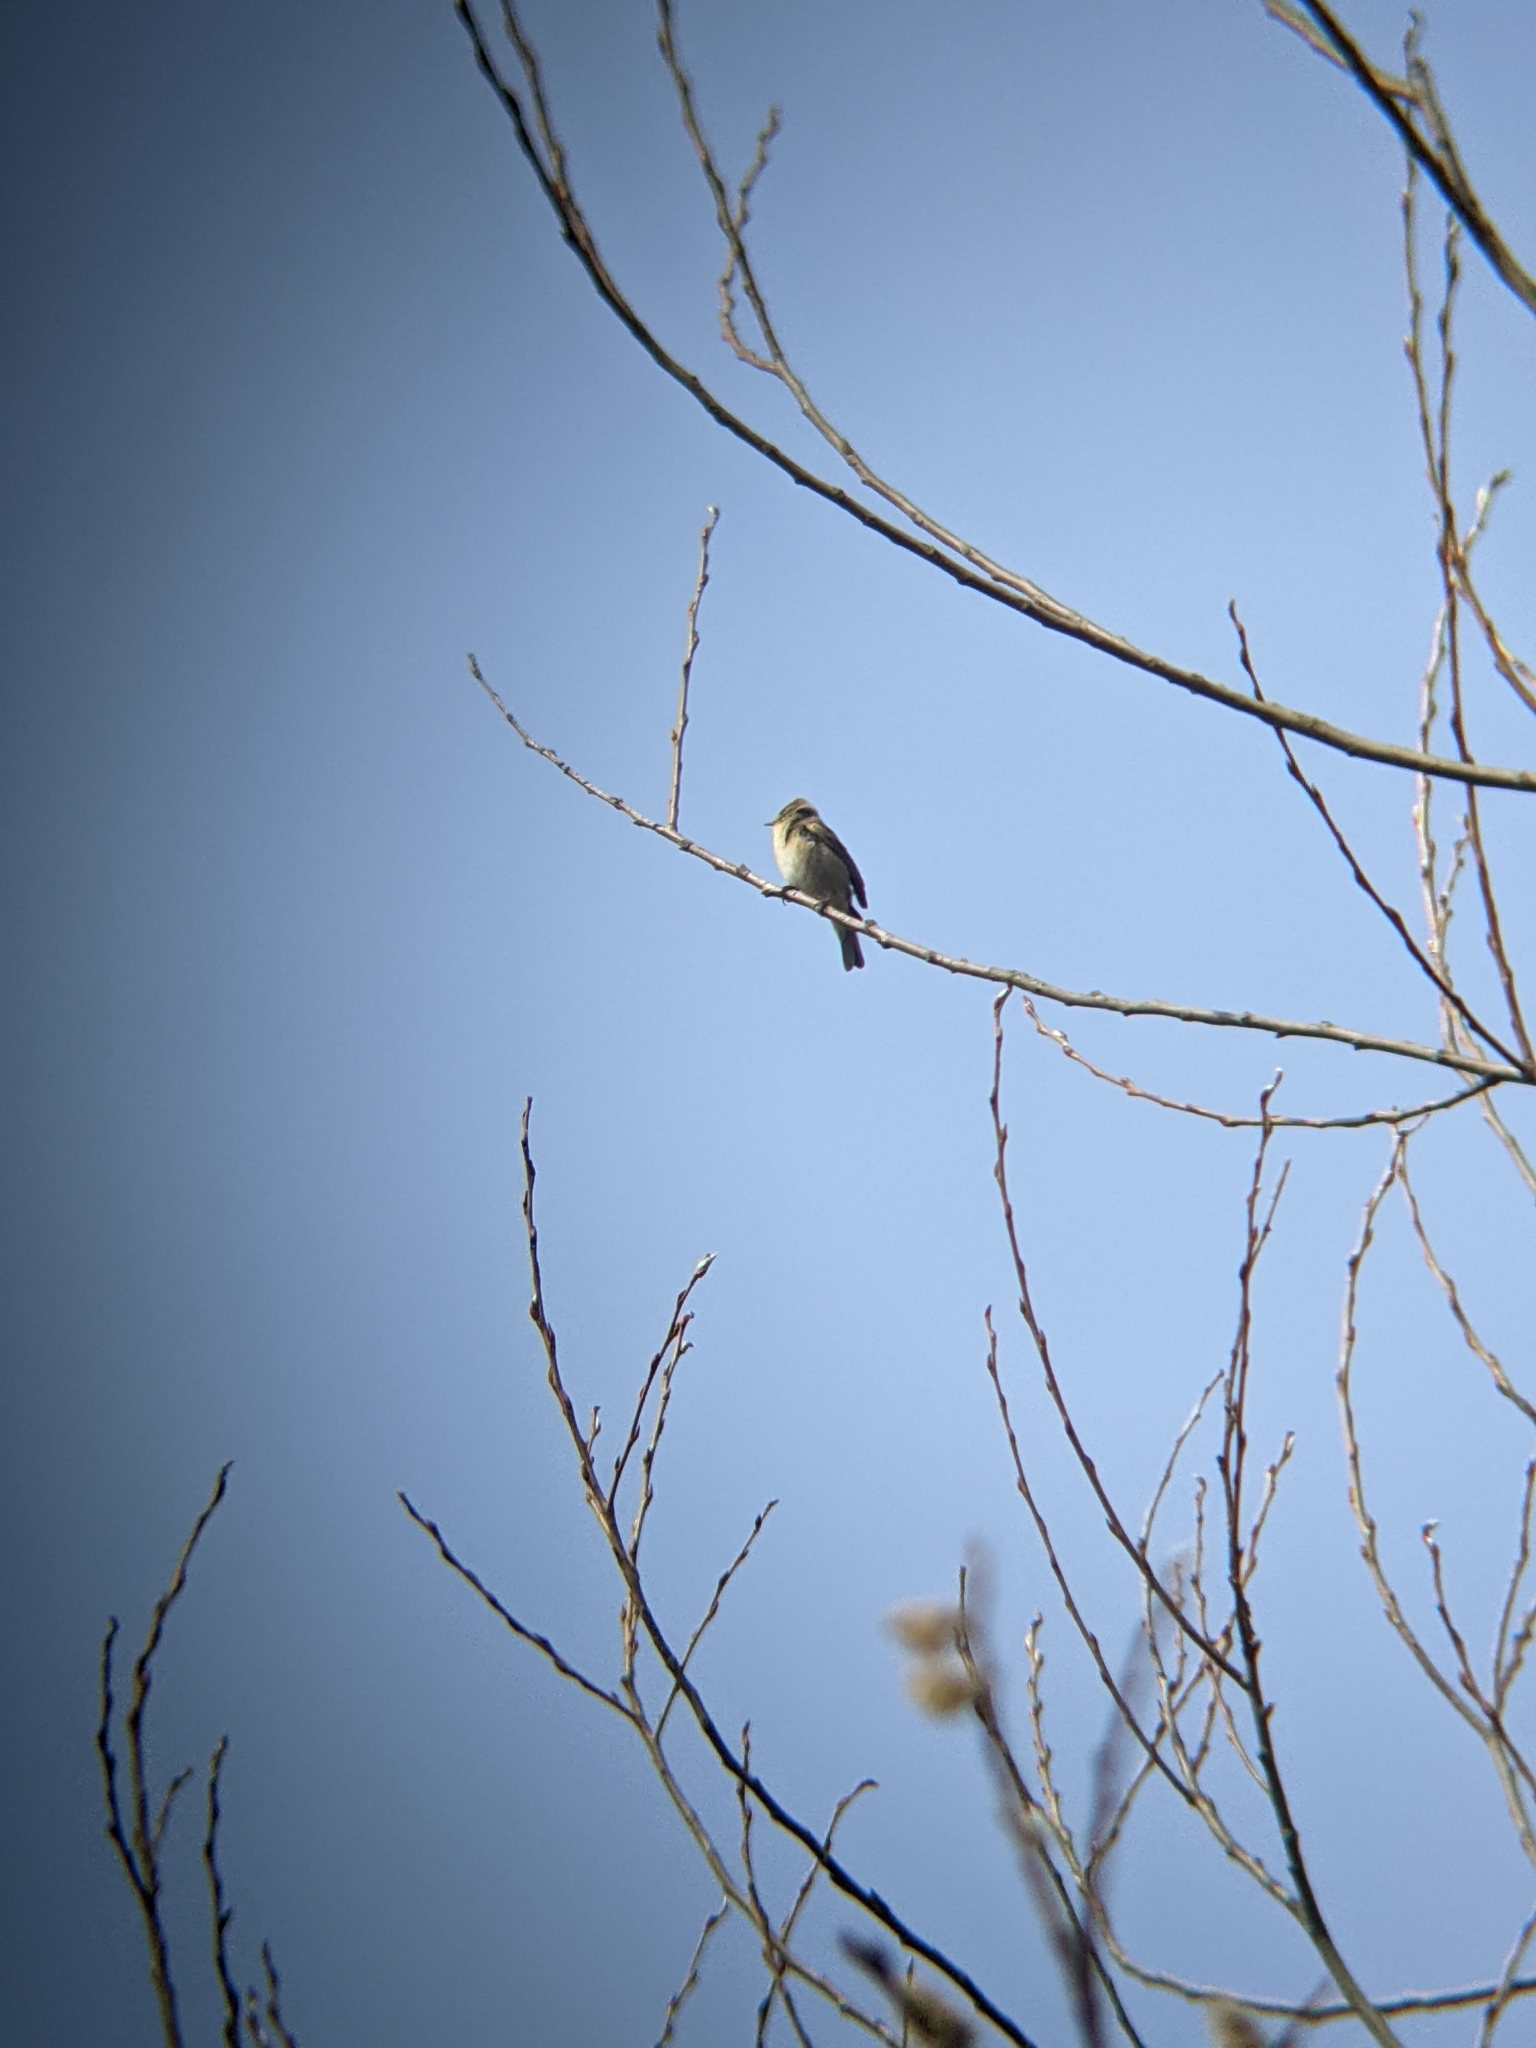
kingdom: Animalia
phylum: Chordata
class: Aves
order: Passeriformes
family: Phylloscopidae
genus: Phylloscopus
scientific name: Phylloscopus collybita
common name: Common chiffchaff
